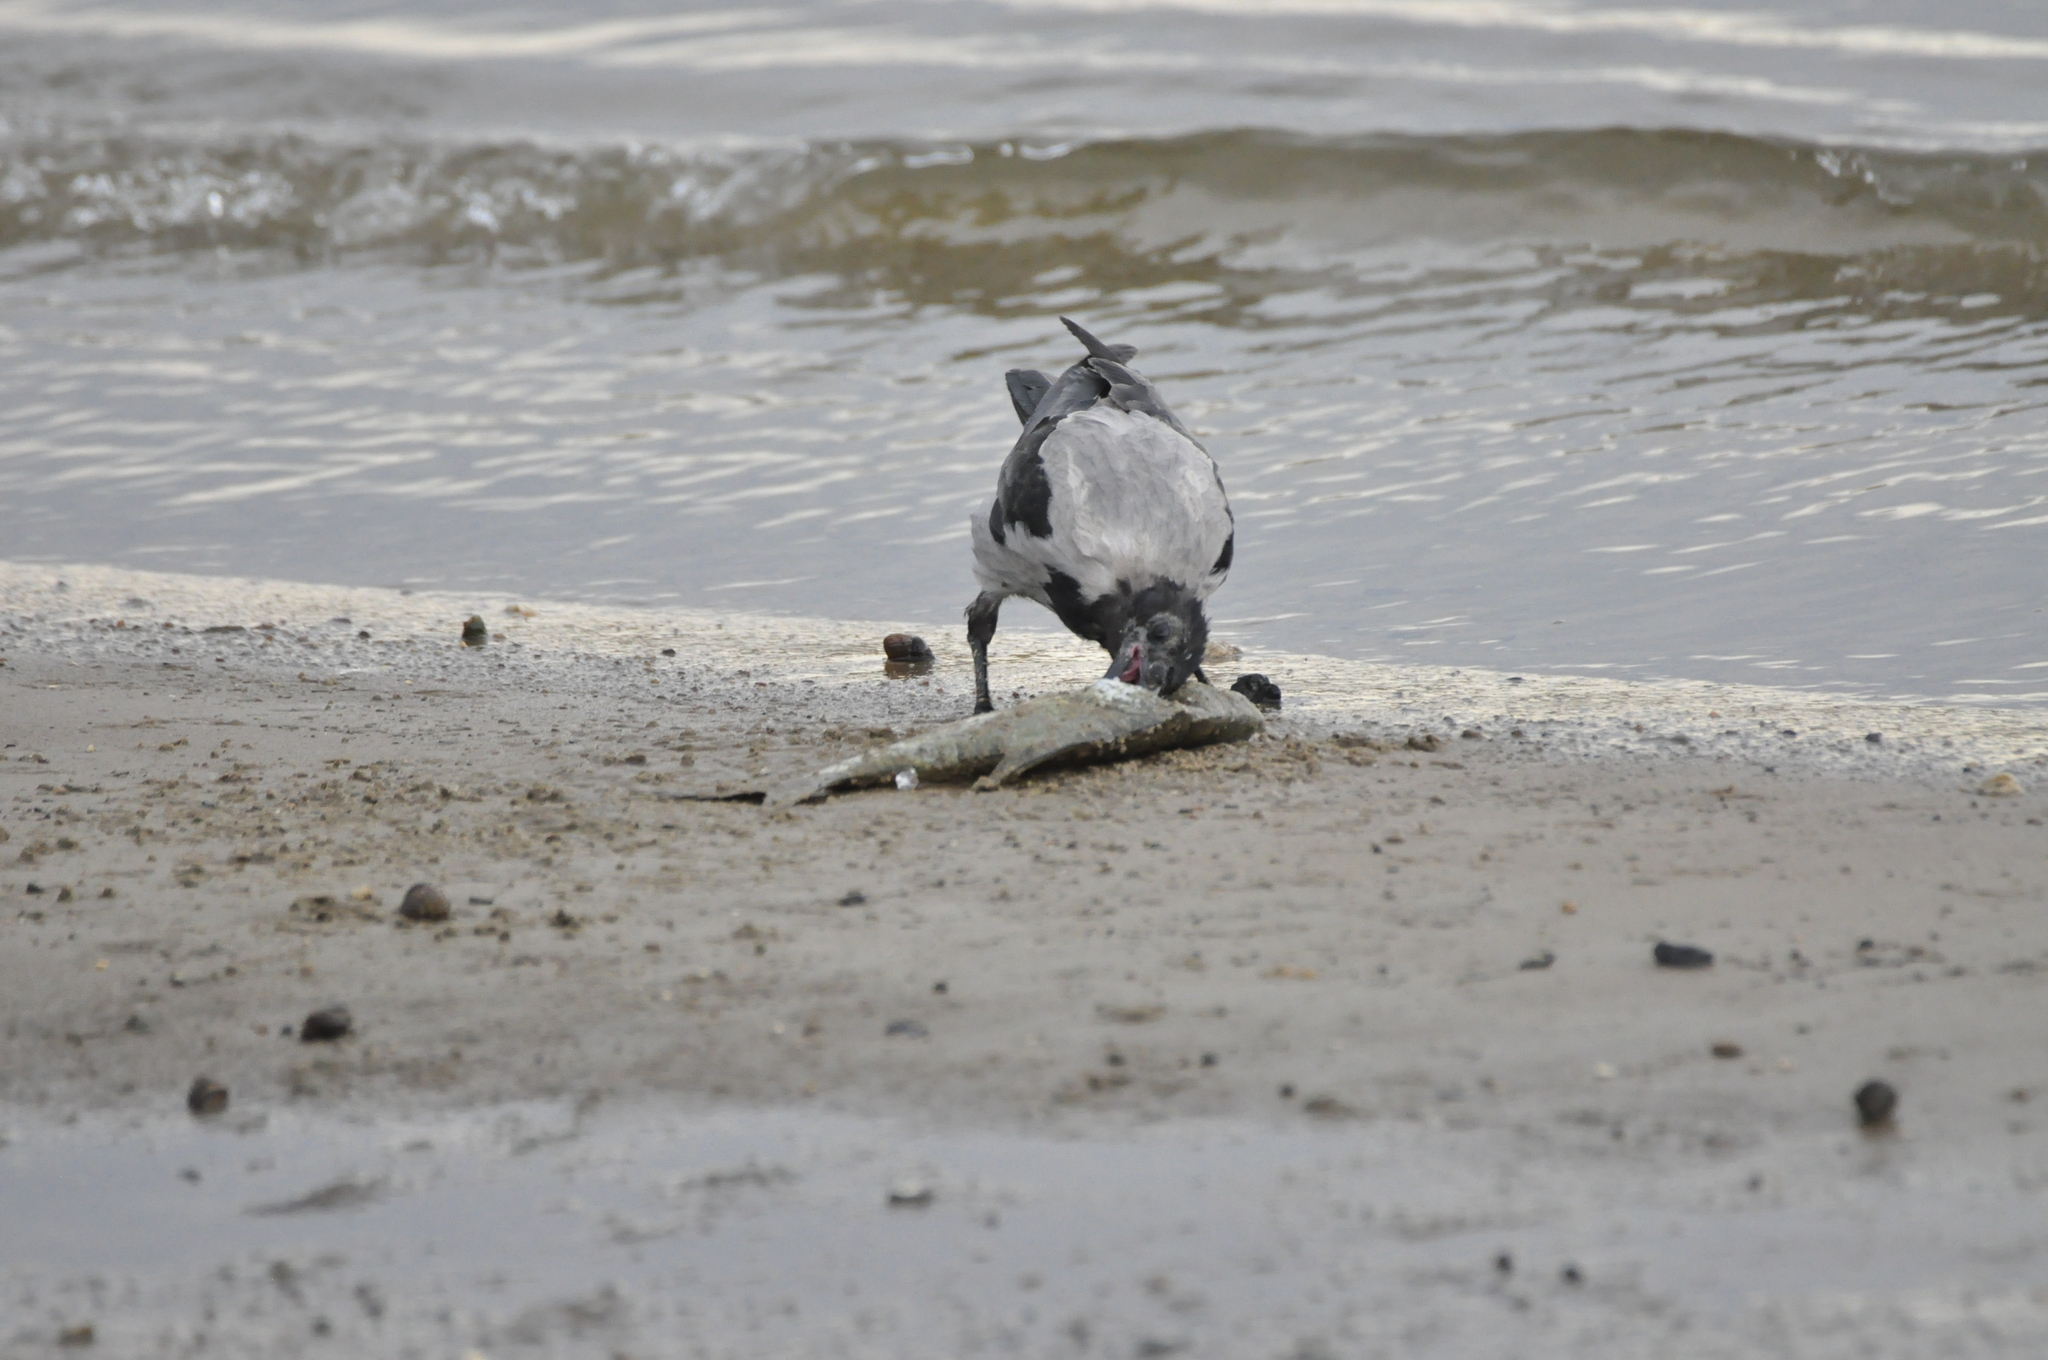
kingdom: Animalia
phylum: Chordata
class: Aves
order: Passeriformes
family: Corvidae
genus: Corvus
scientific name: Corvus cornix
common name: Hooded crow
